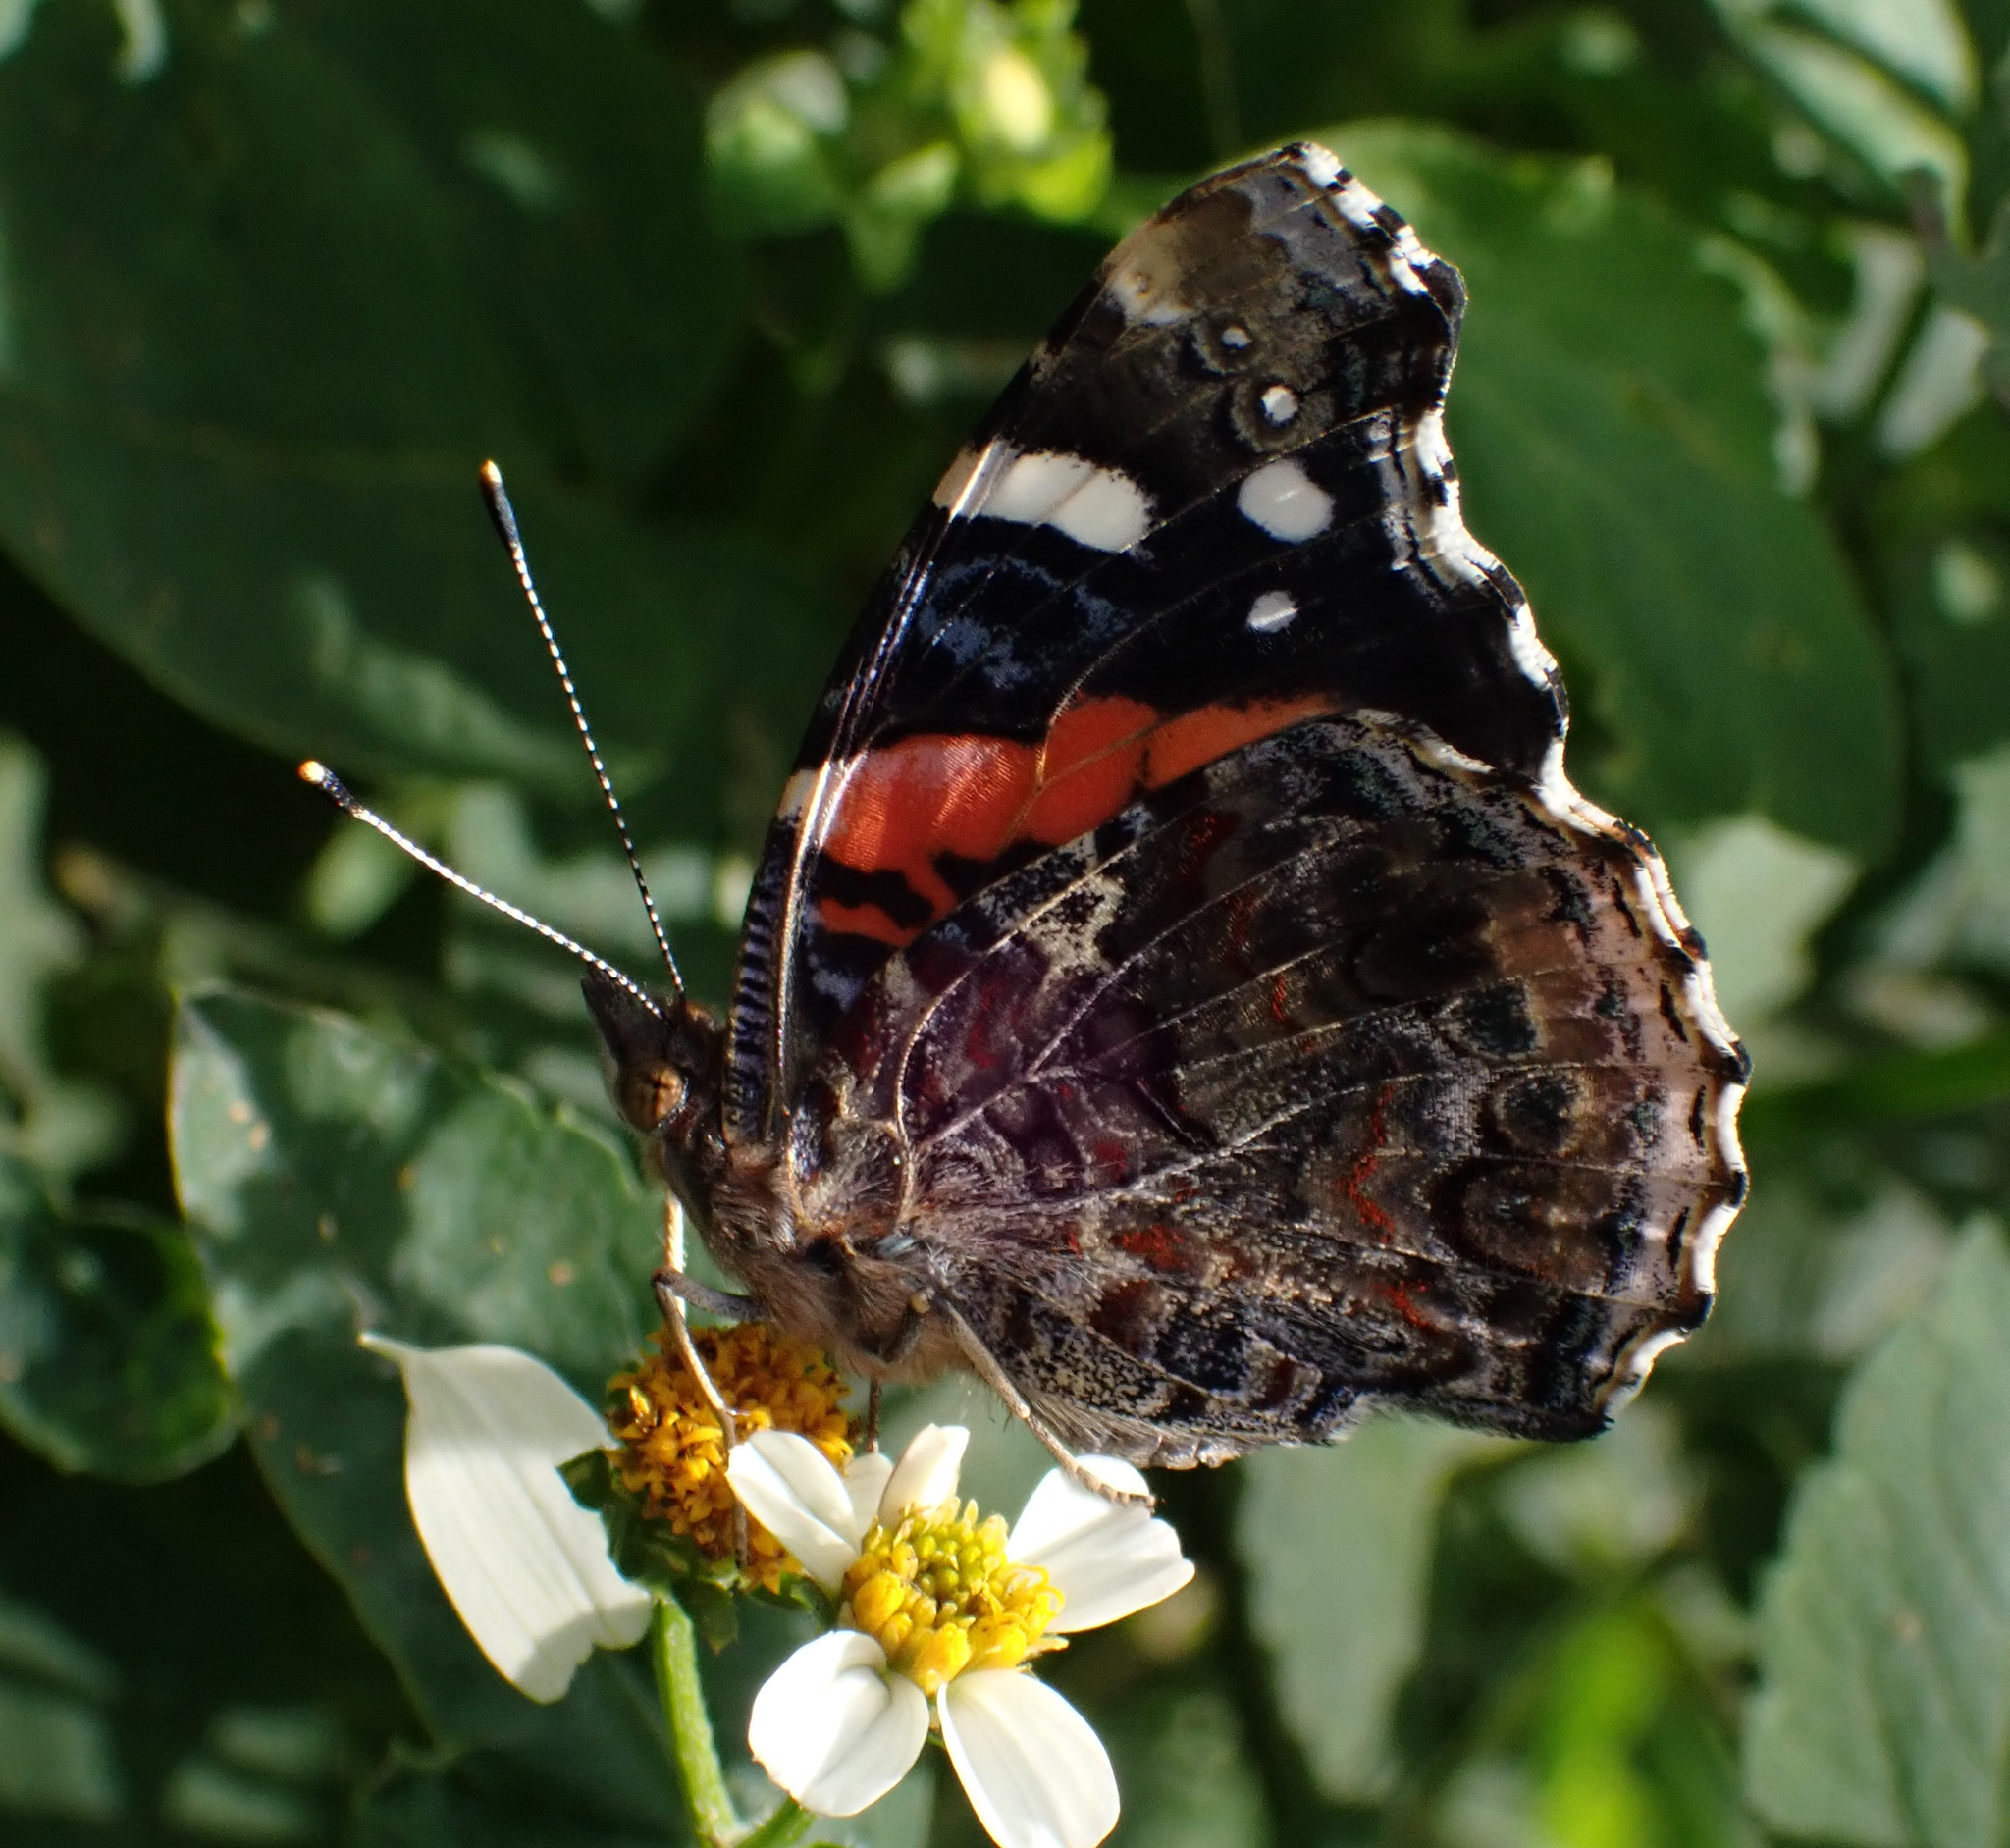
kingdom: Animalia
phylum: Arthropoda
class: Insecta
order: Lepidoptera
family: Nymphalidae
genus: Vanessa
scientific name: Vanessa atalanta
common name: Red admiral
